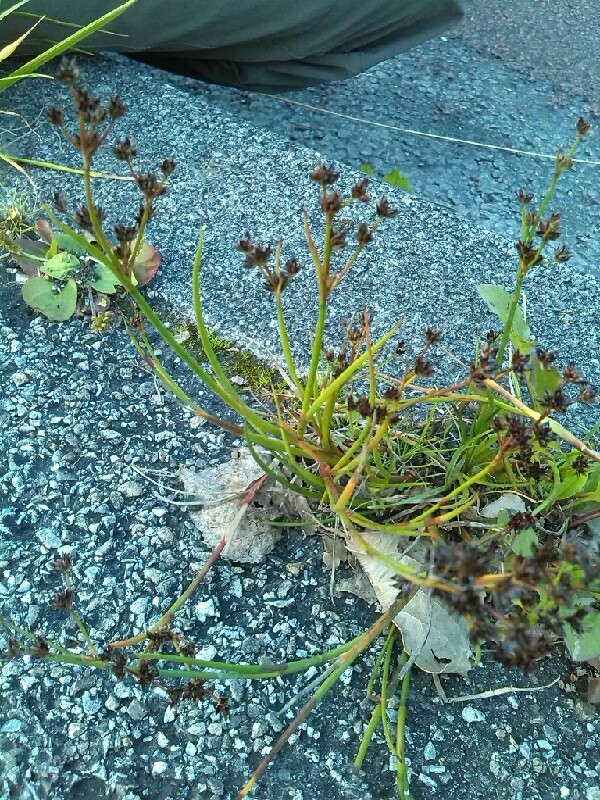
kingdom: Plantae
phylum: Tracheophyta
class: Liliopsida
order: Poales
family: Juncaceae
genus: Juncus
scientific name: Juncus articulatus
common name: Jointed rush
